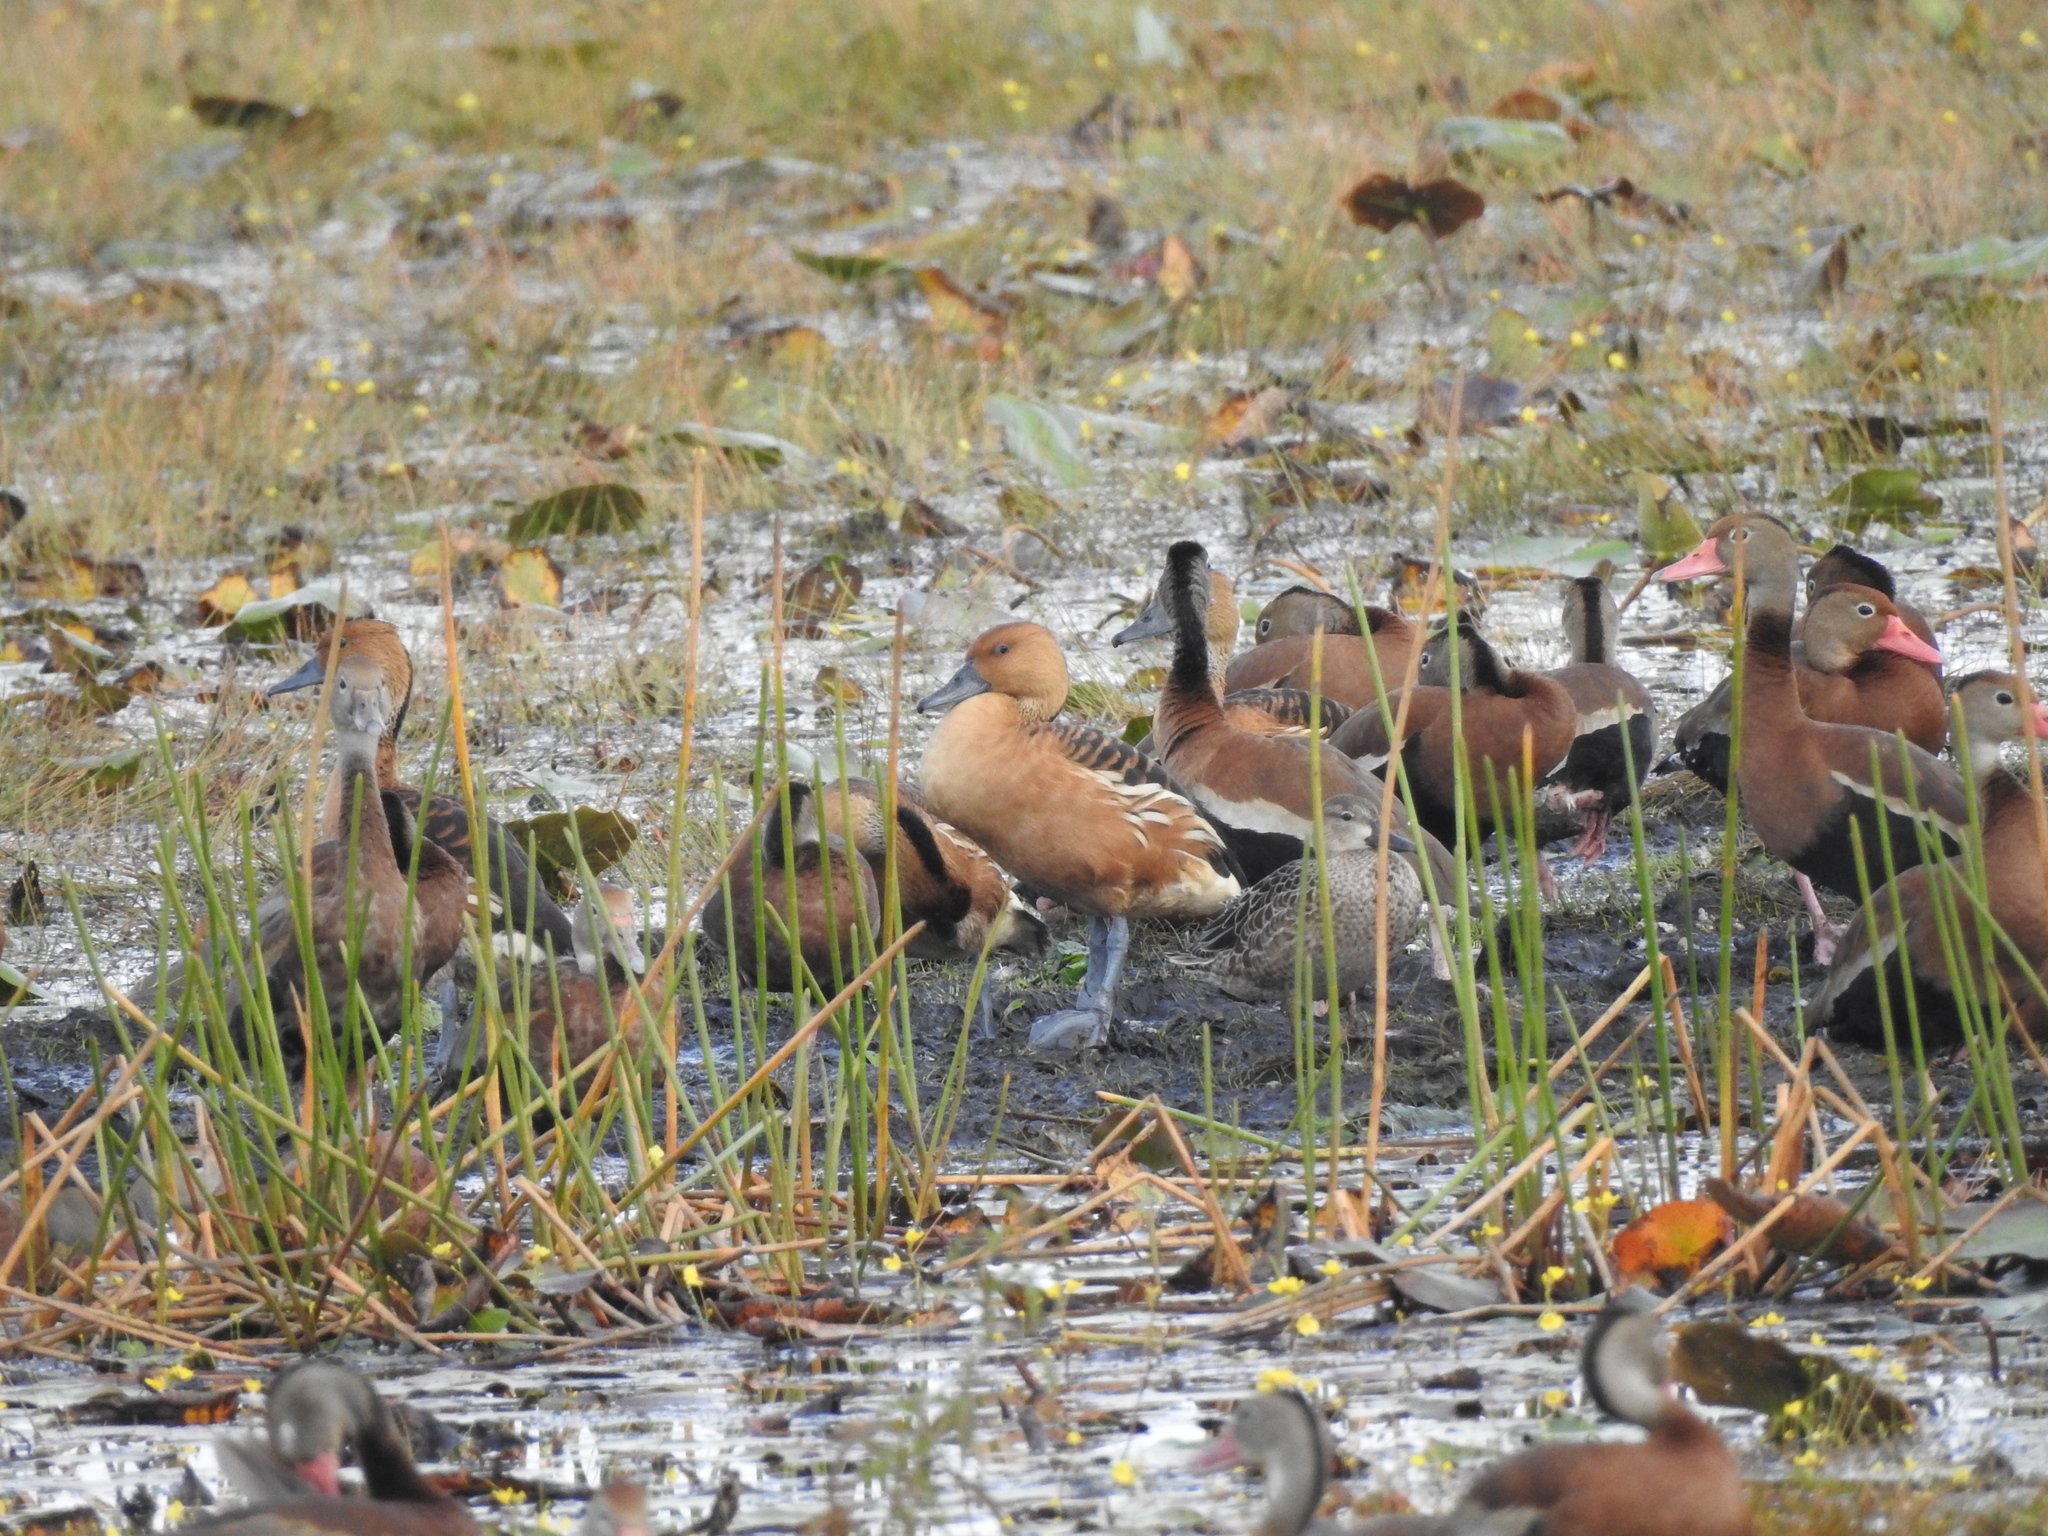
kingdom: Animalia
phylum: Chordata
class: Aves
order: Anseriformes
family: Anatidae
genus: Dendrocygna
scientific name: Dendrocygna bicolor
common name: Fulvous whistling duck
